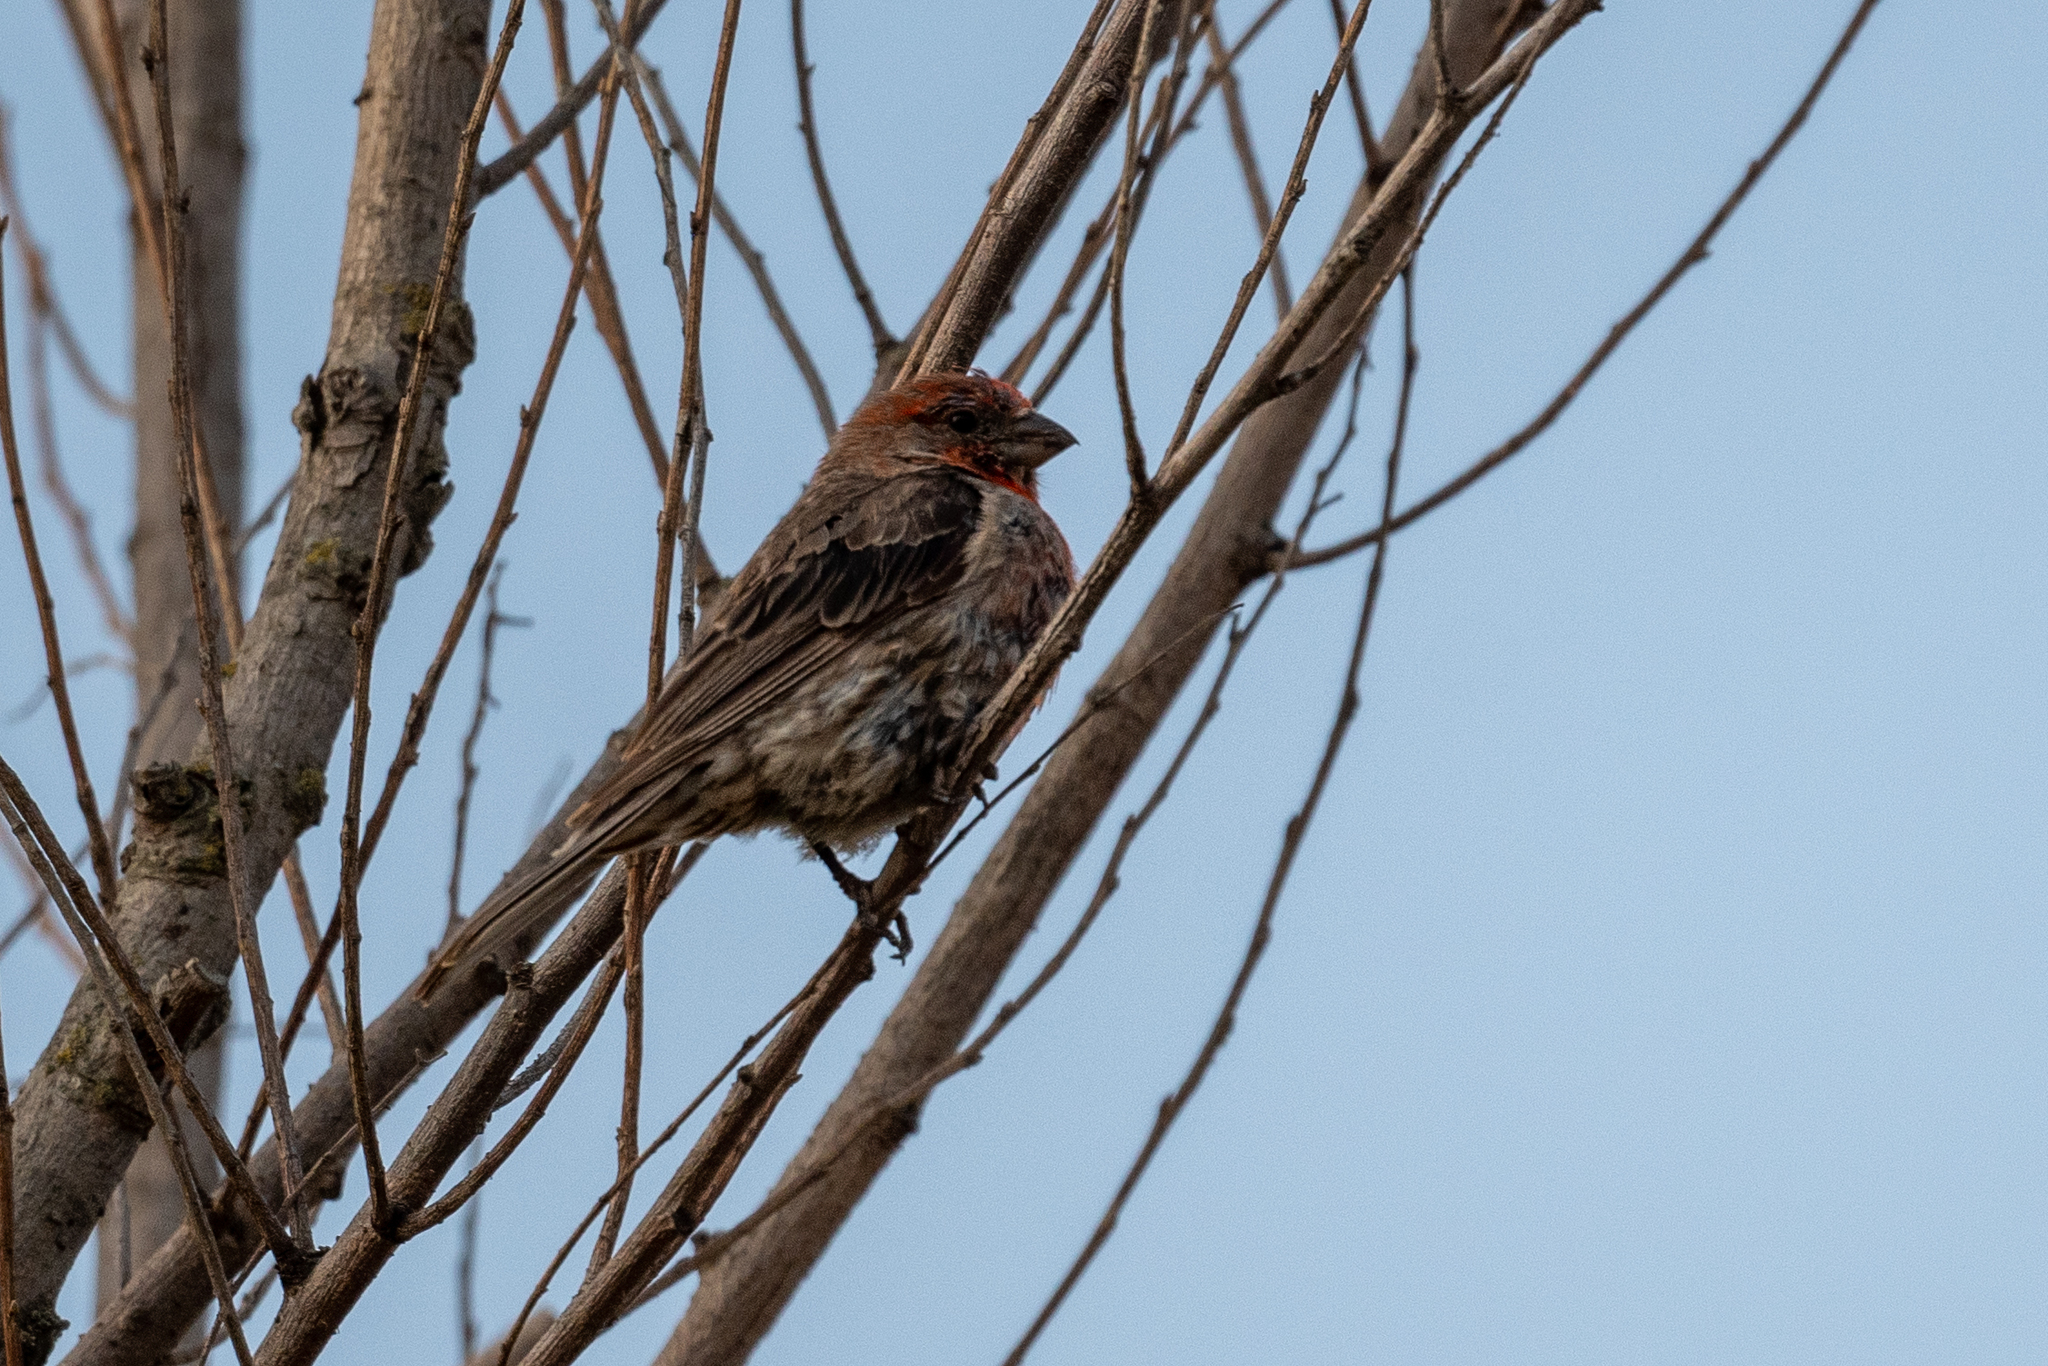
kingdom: Animalia
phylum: Chordata
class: Aves
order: Passeriformes
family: Fringillidae
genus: Haemorhous
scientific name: Haemorhous mexicanus
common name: House finch
